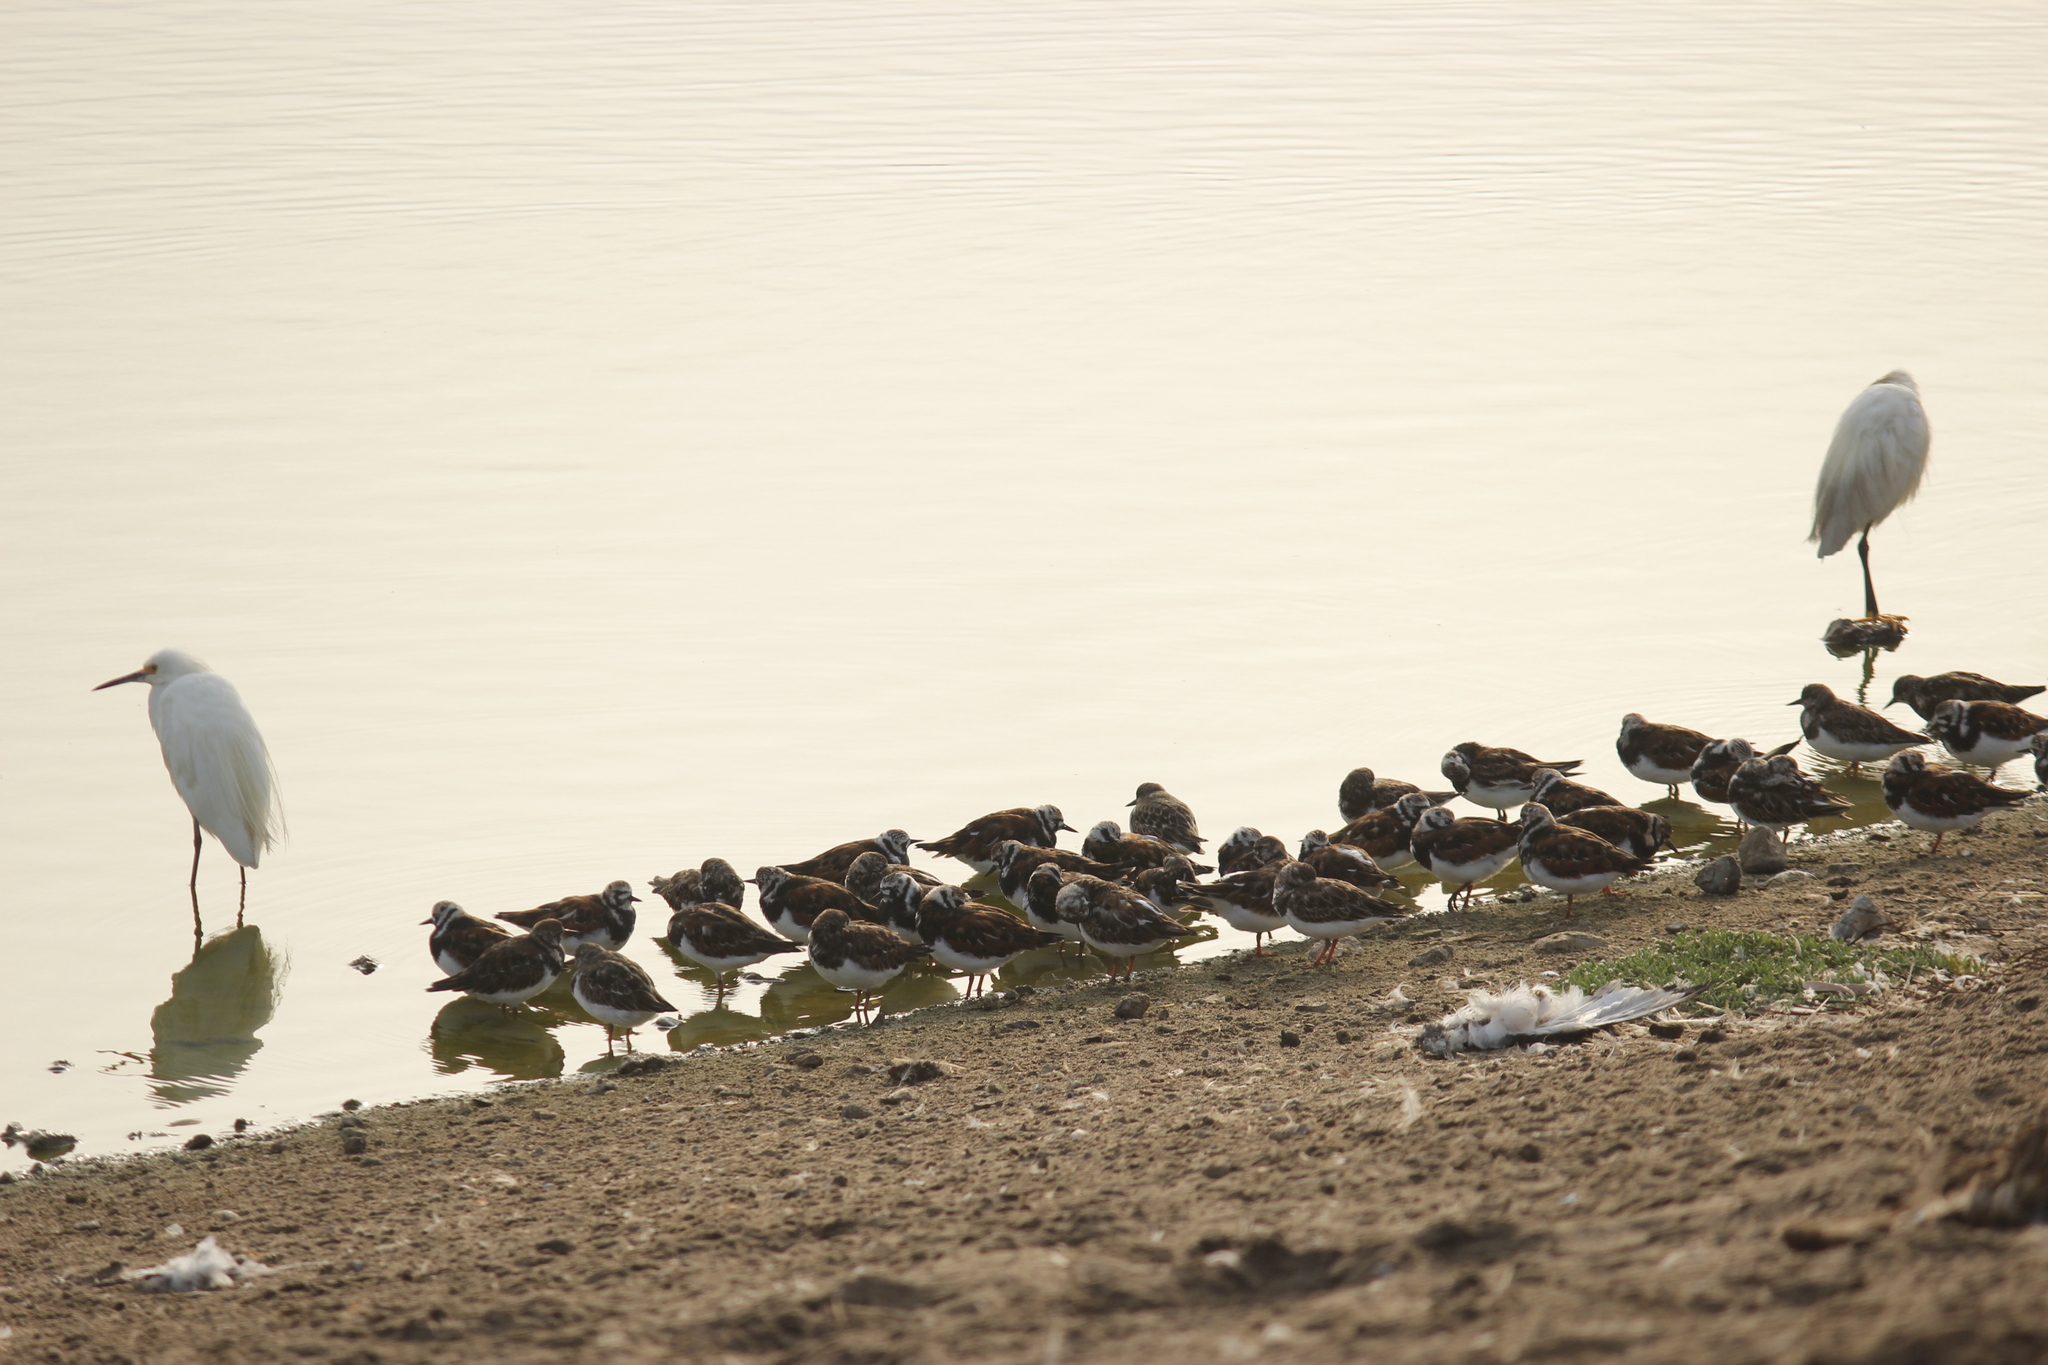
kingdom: Animalia
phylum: Chordata
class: Aves
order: Charadriiformes
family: Scolopacidae
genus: Arenaria
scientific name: Arenaria interpres
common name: Ruddy turnstone
